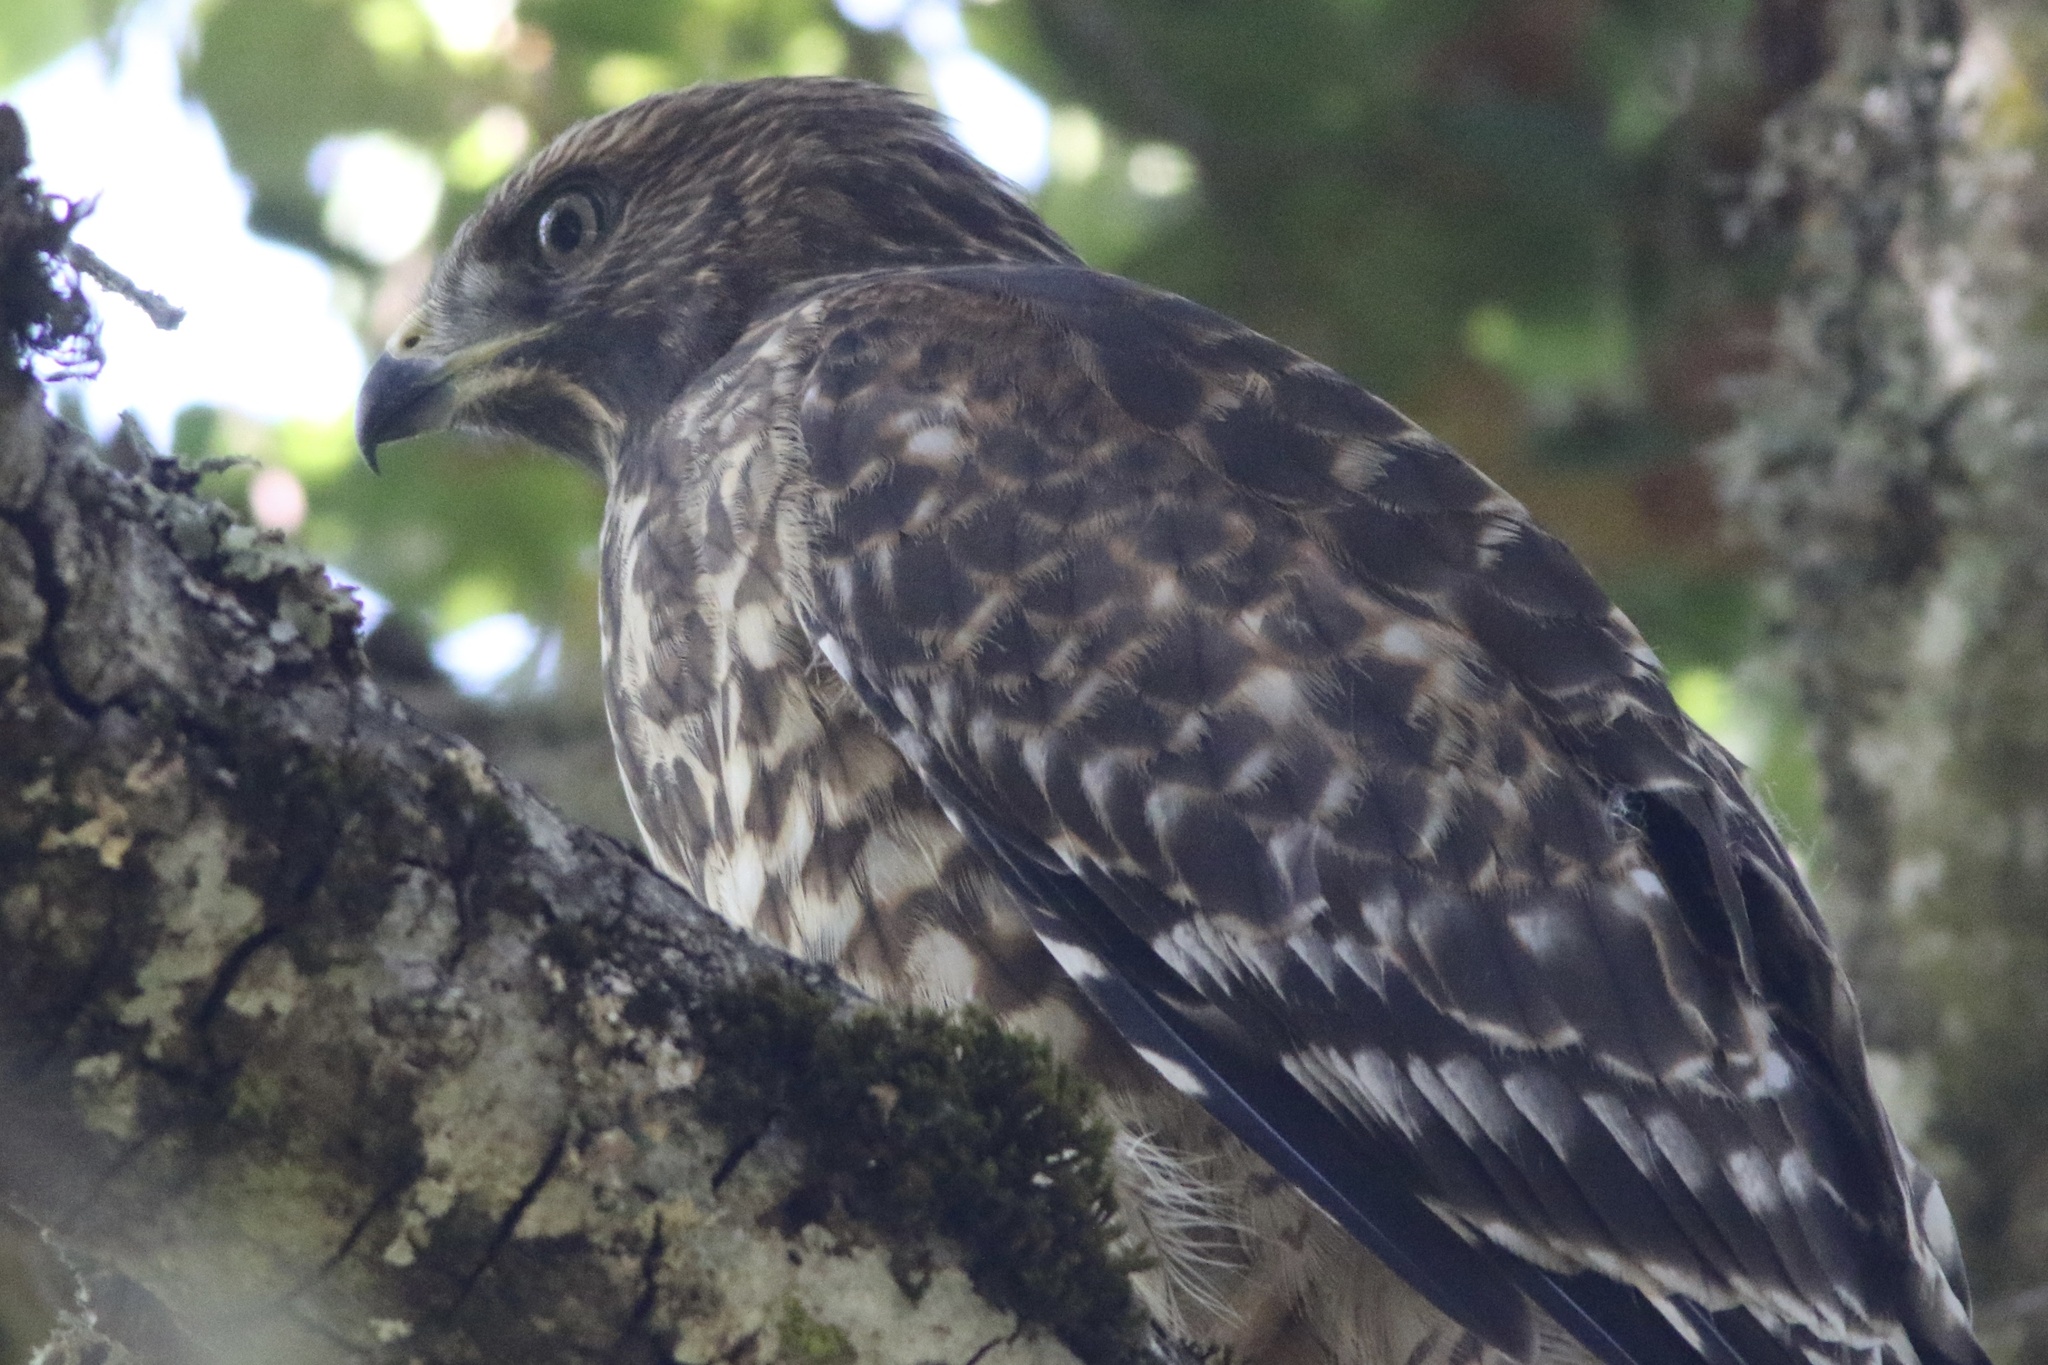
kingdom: Animalia
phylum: Chordata
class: Aves
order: Accipitriformes
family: Accipitridae
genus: Buteo
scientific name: Buteo lineatus
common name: Red-shouldered hawk
